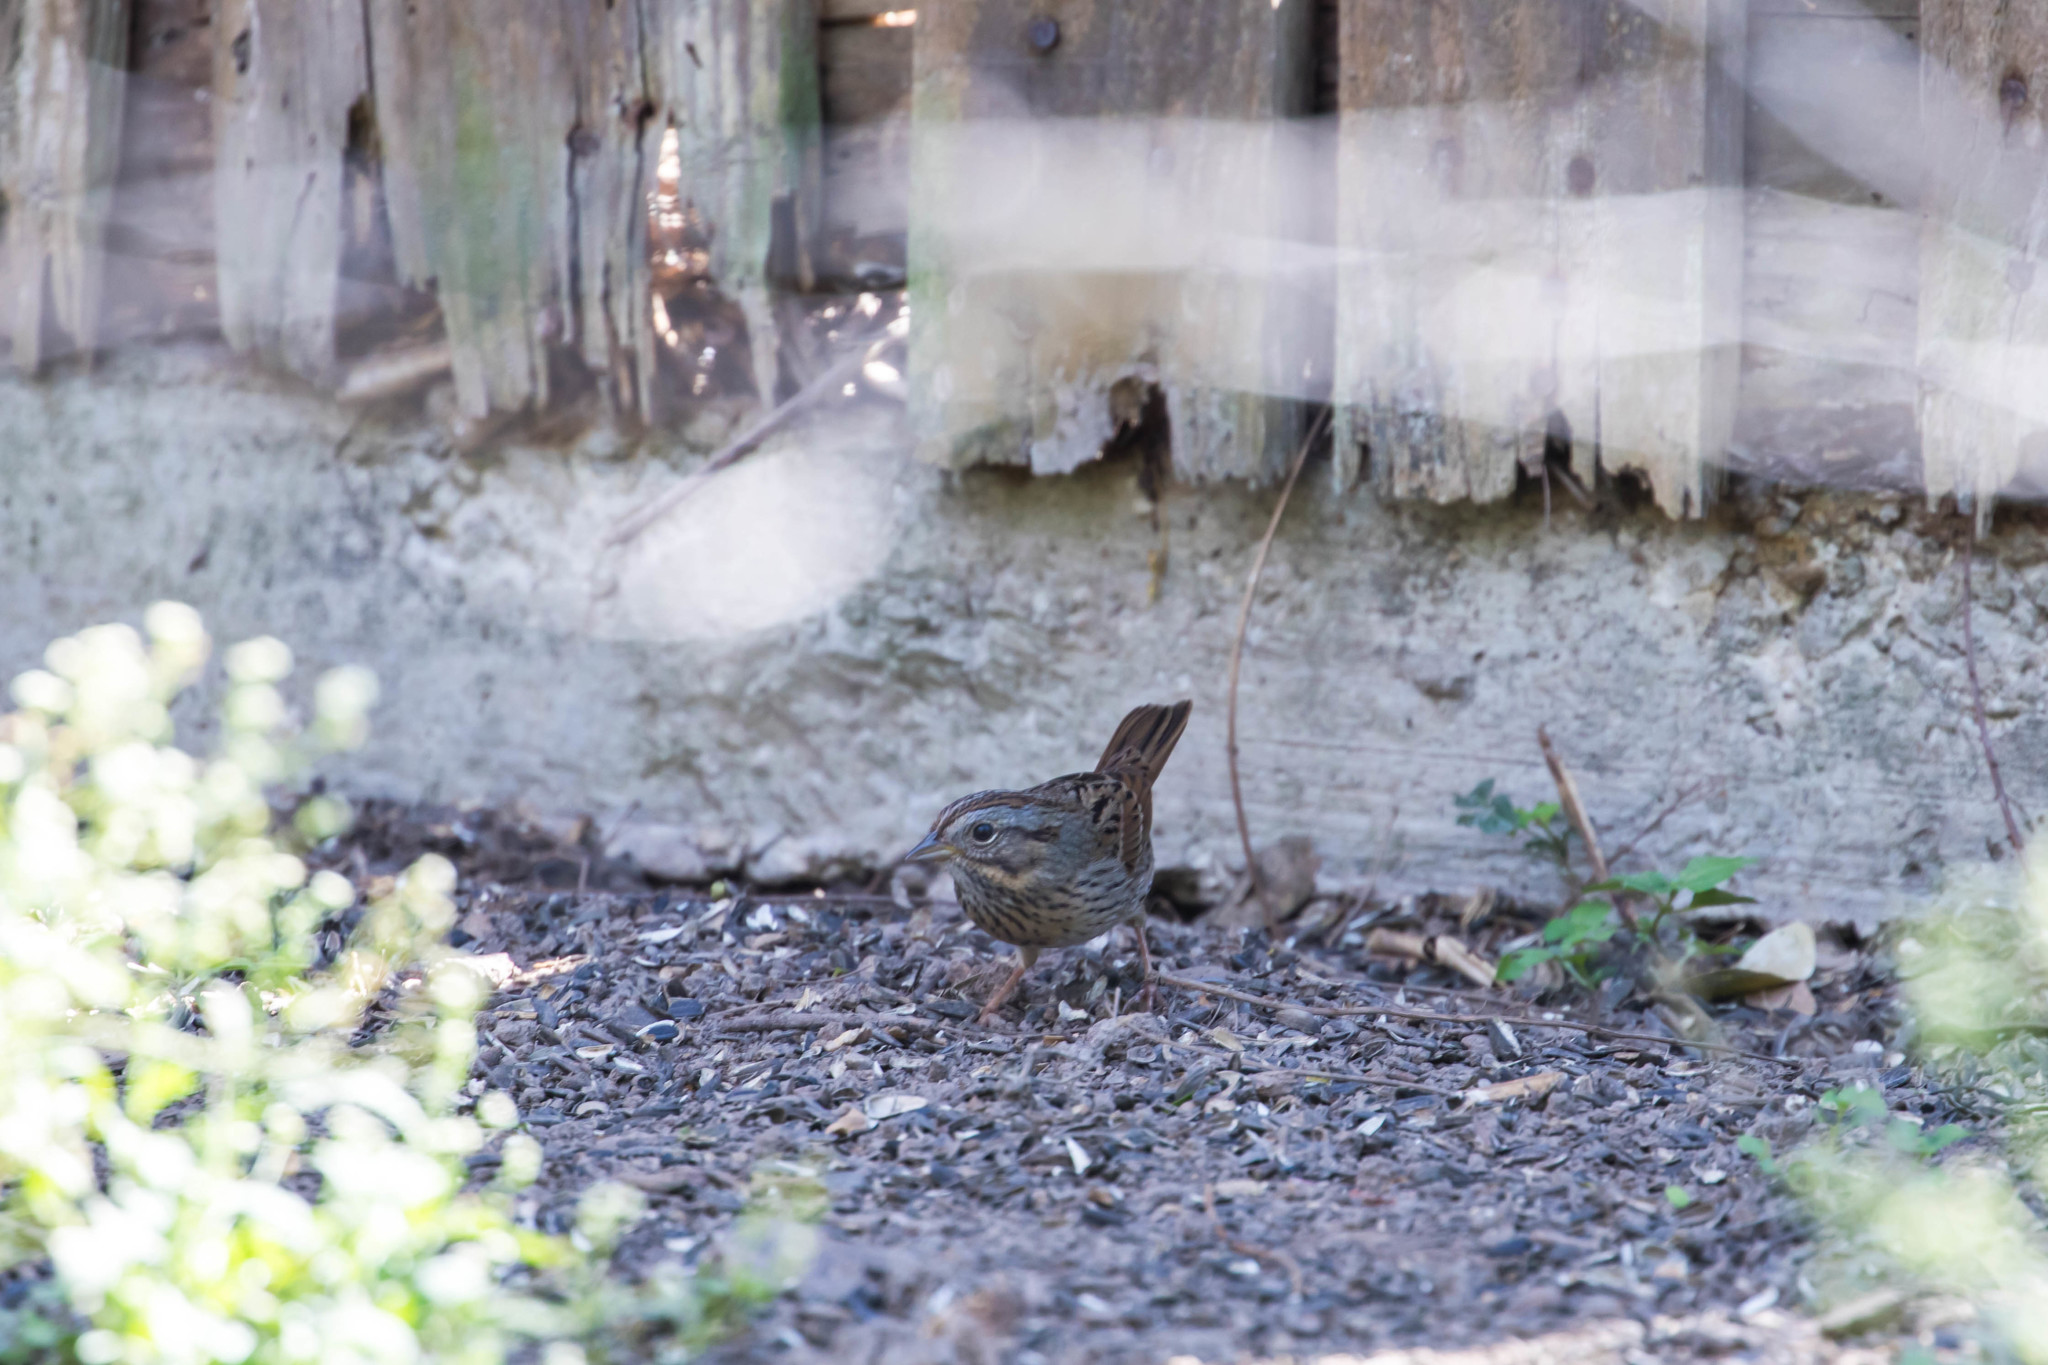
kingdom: Animalia
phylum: Chordata
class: Aves
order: Passeriformes
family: Passerellidae
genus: Melospiza
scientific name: Melospiza lincolnii
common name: Lincoln's sparrow
